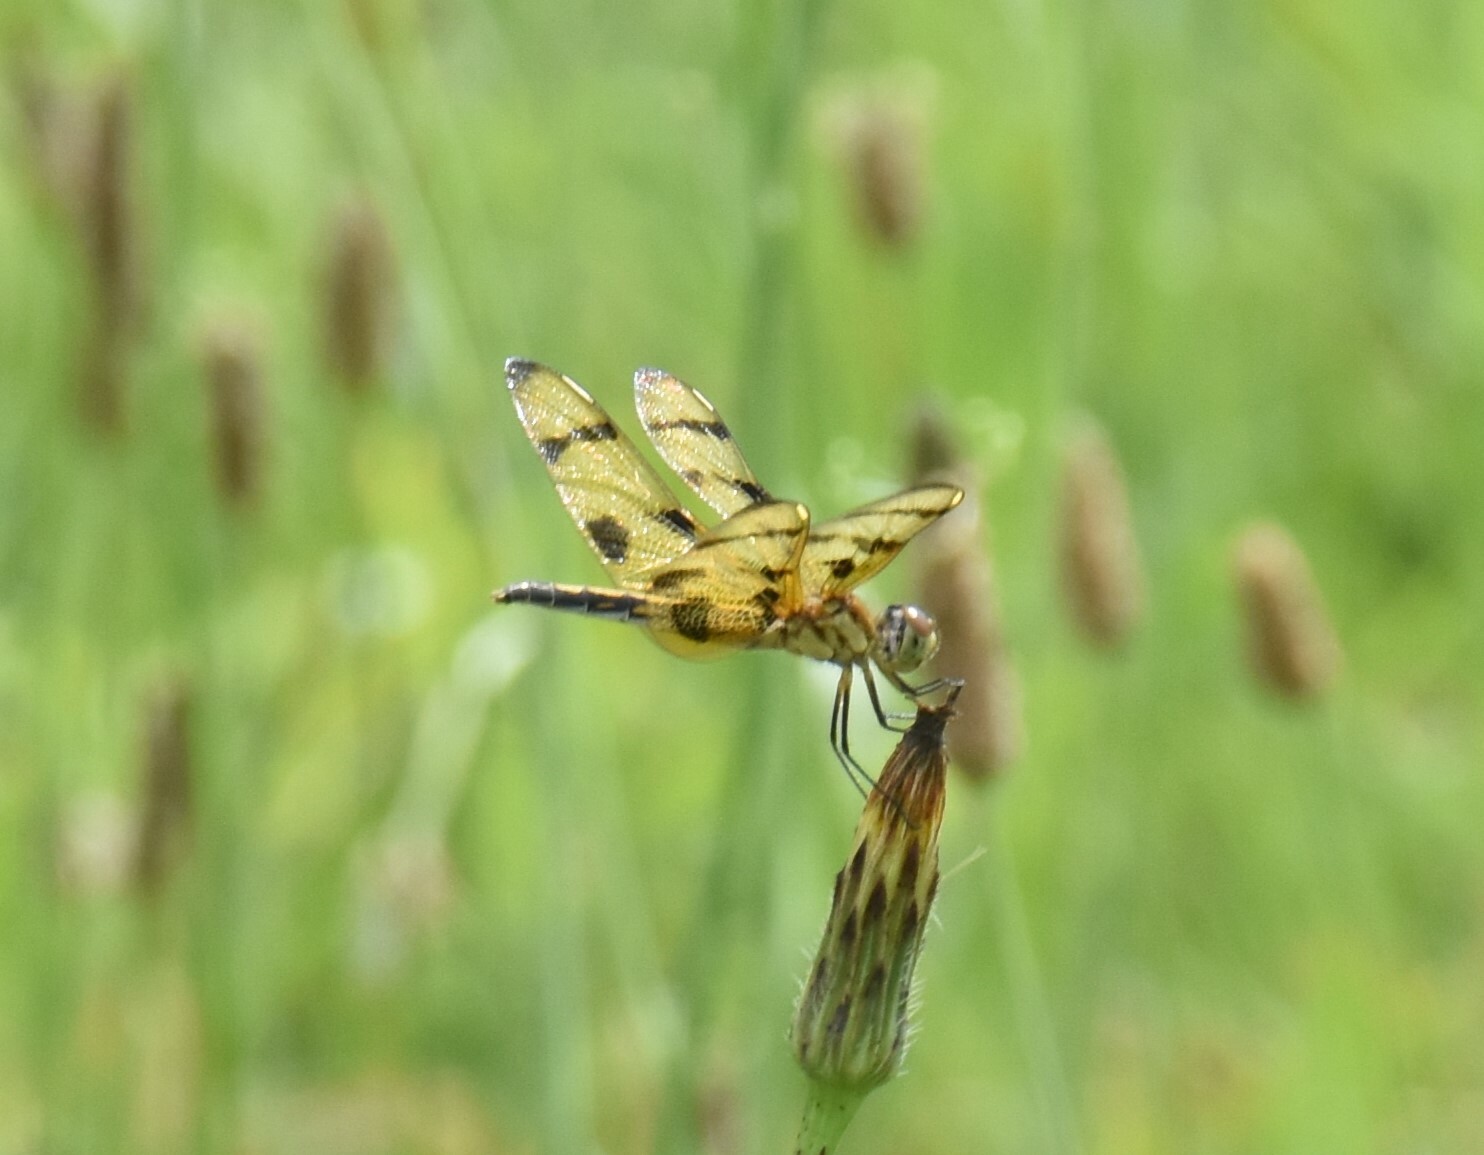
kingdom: Animalia
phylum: Arthropoda
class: Insecta
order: Odonata
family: Libellulidae
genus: Celithemis
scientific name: Celithemis eponina
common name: Halloween pennant
